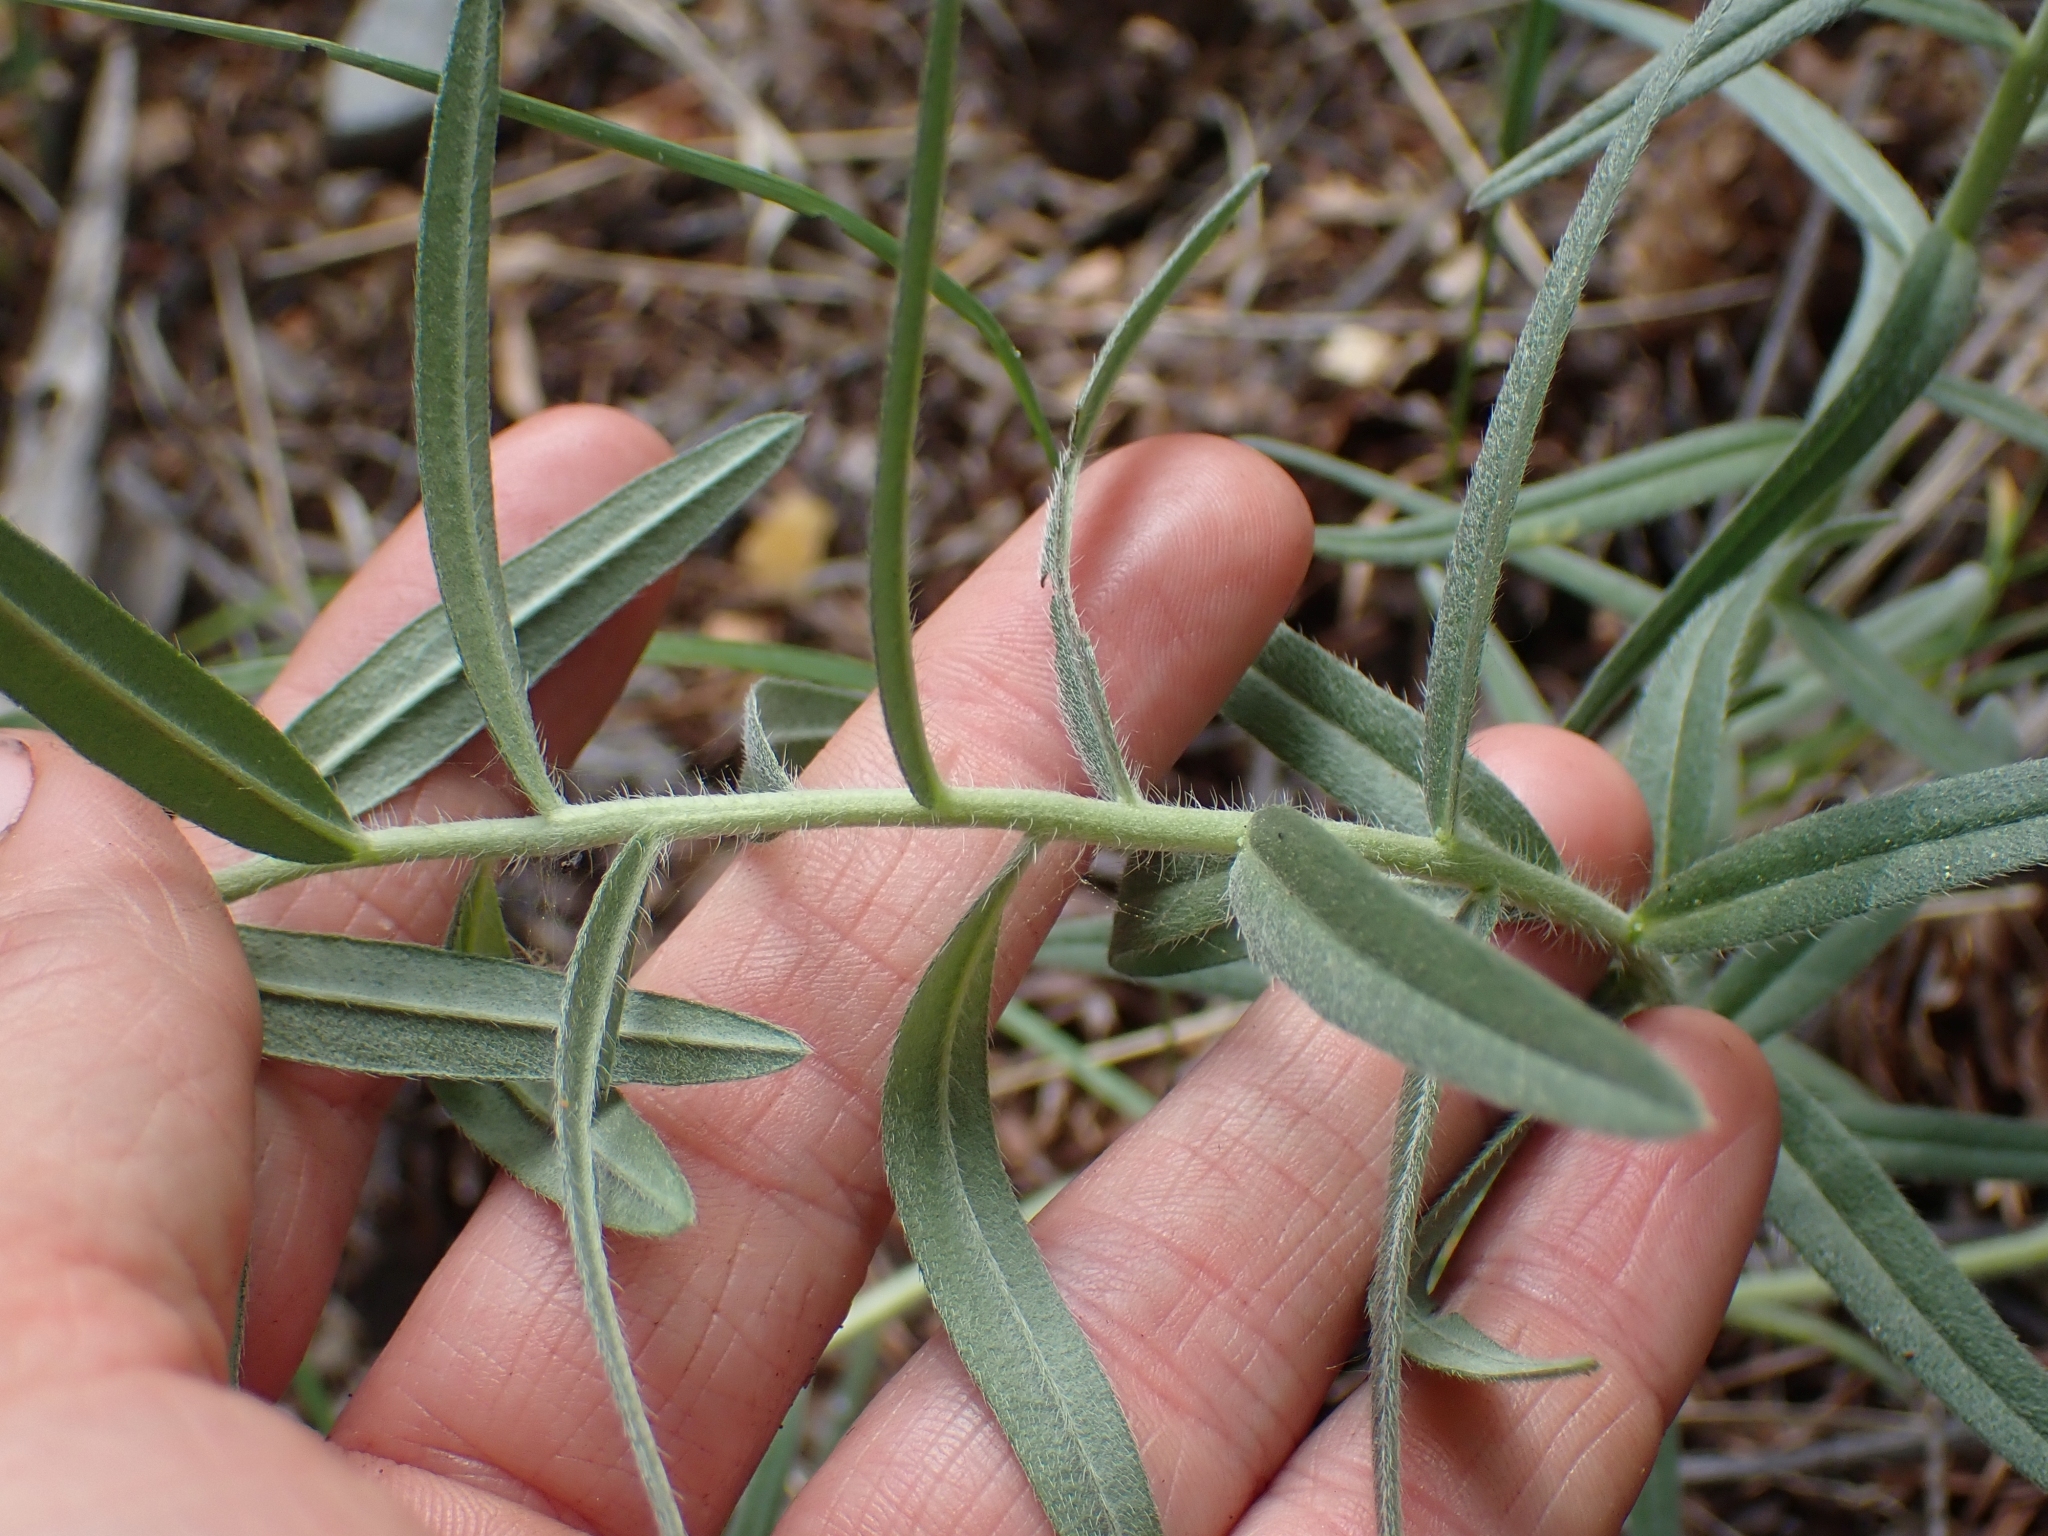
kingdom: Plantae
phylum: Tracheophyta
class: Magnoliopsida
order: Boraginales
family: Boraginaceae
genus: Lithospermum
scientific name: Lithospermum ruderale
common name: Western gromwell
